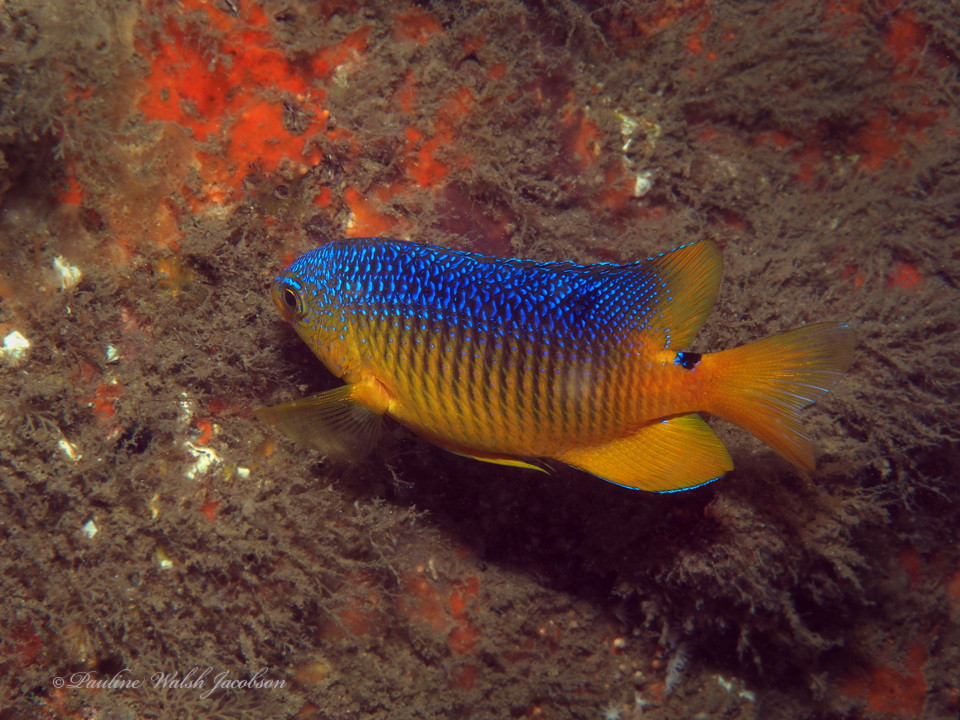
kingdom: Animalia
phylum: Chordata
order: Perciformes
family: Pomacentridae
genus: Stegastes
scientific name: Stegastes xanthurus
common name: Cocoa damselfish
